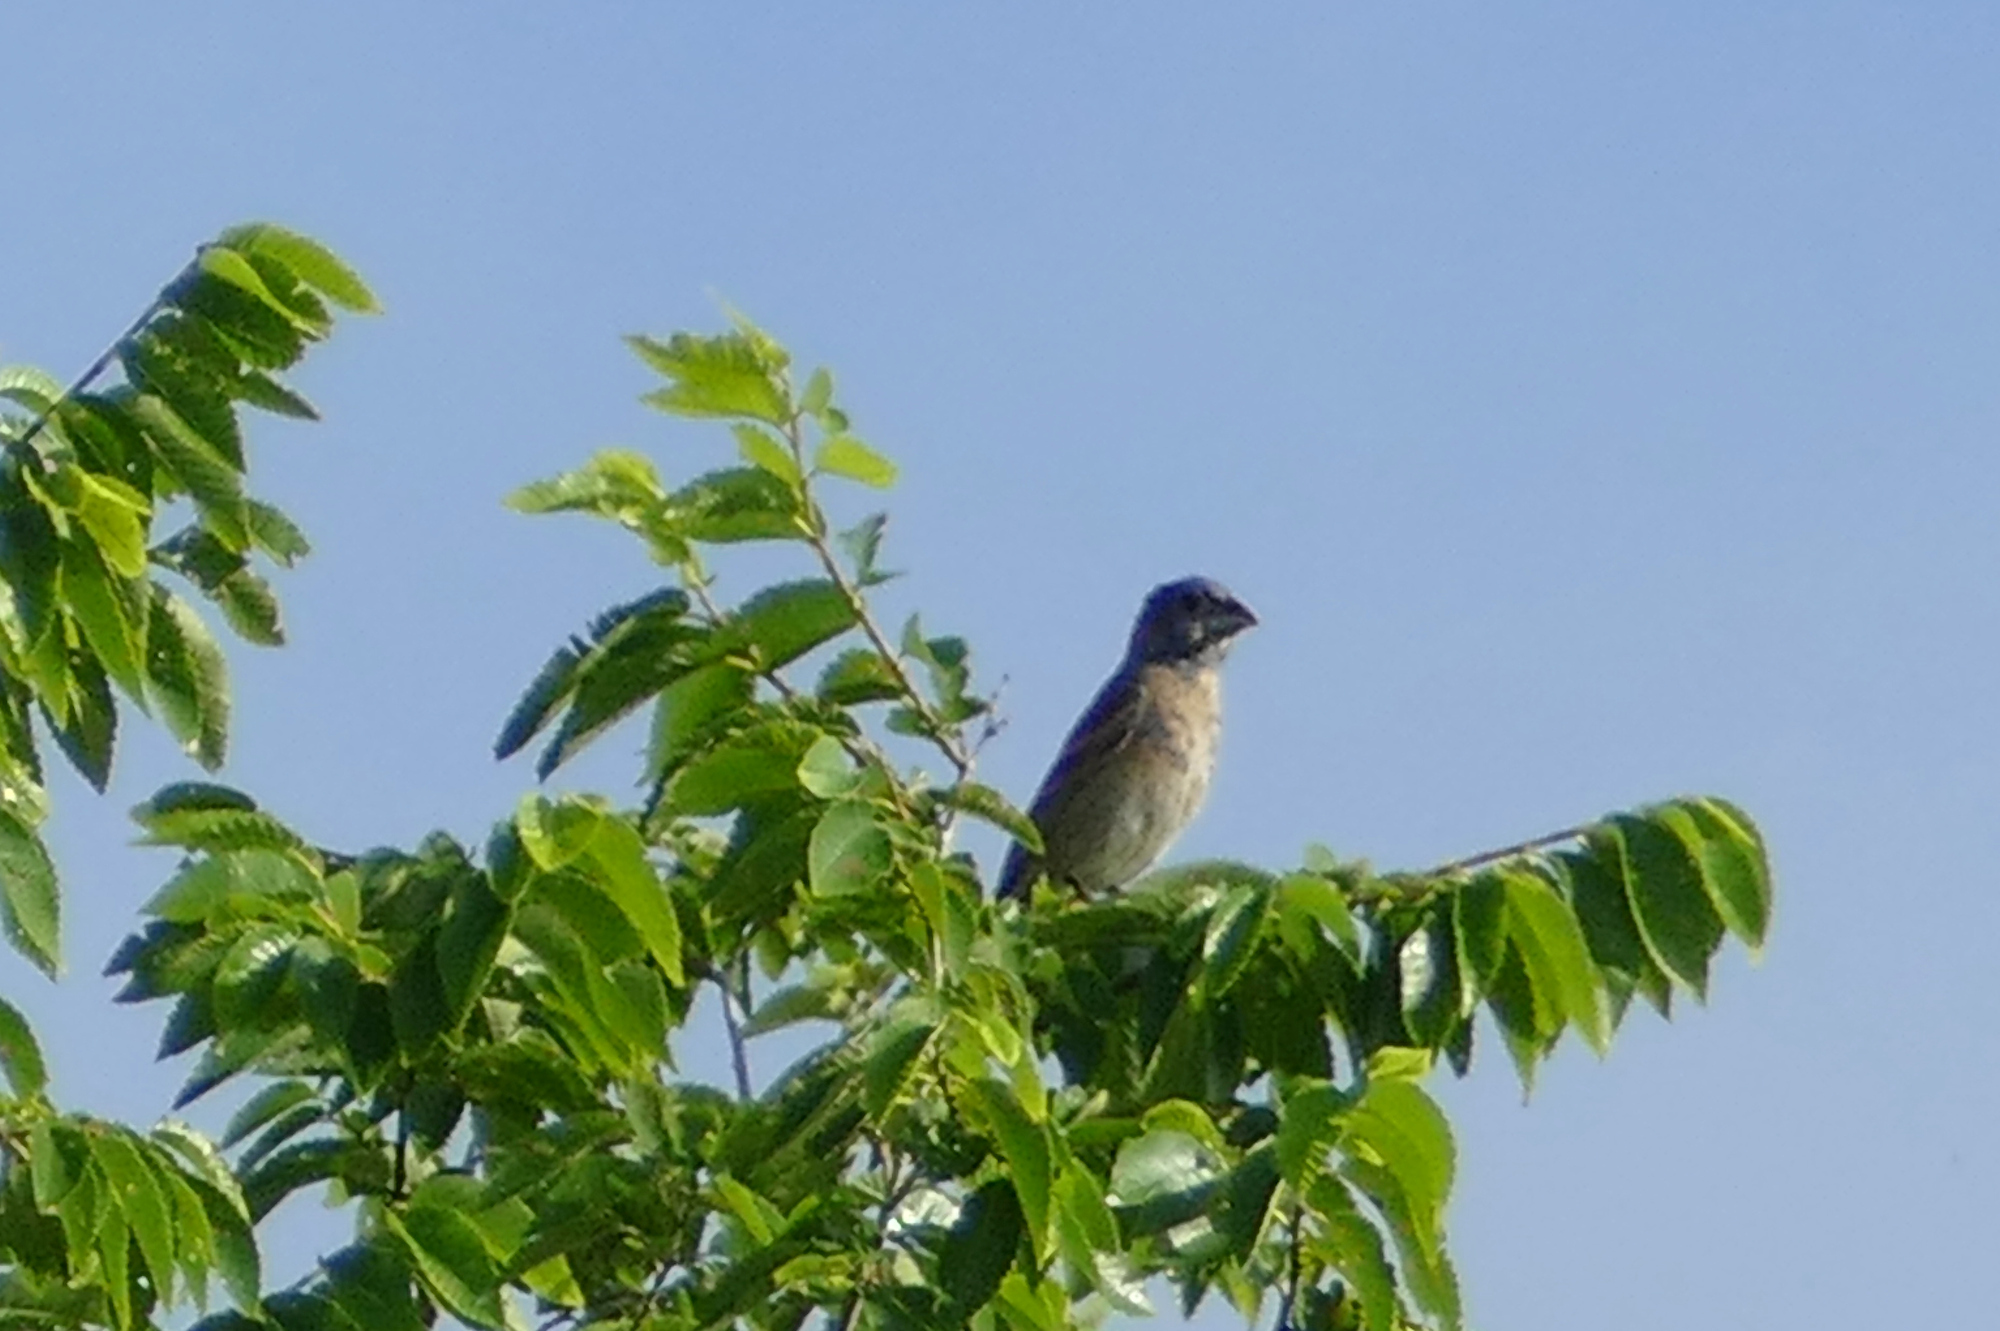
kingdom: Animalia
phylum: Chordata
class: Aves
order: Passeriformes
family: Cardinalidae
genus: Passerina
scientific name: Passerina caerulea
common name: Blue grosbeak
